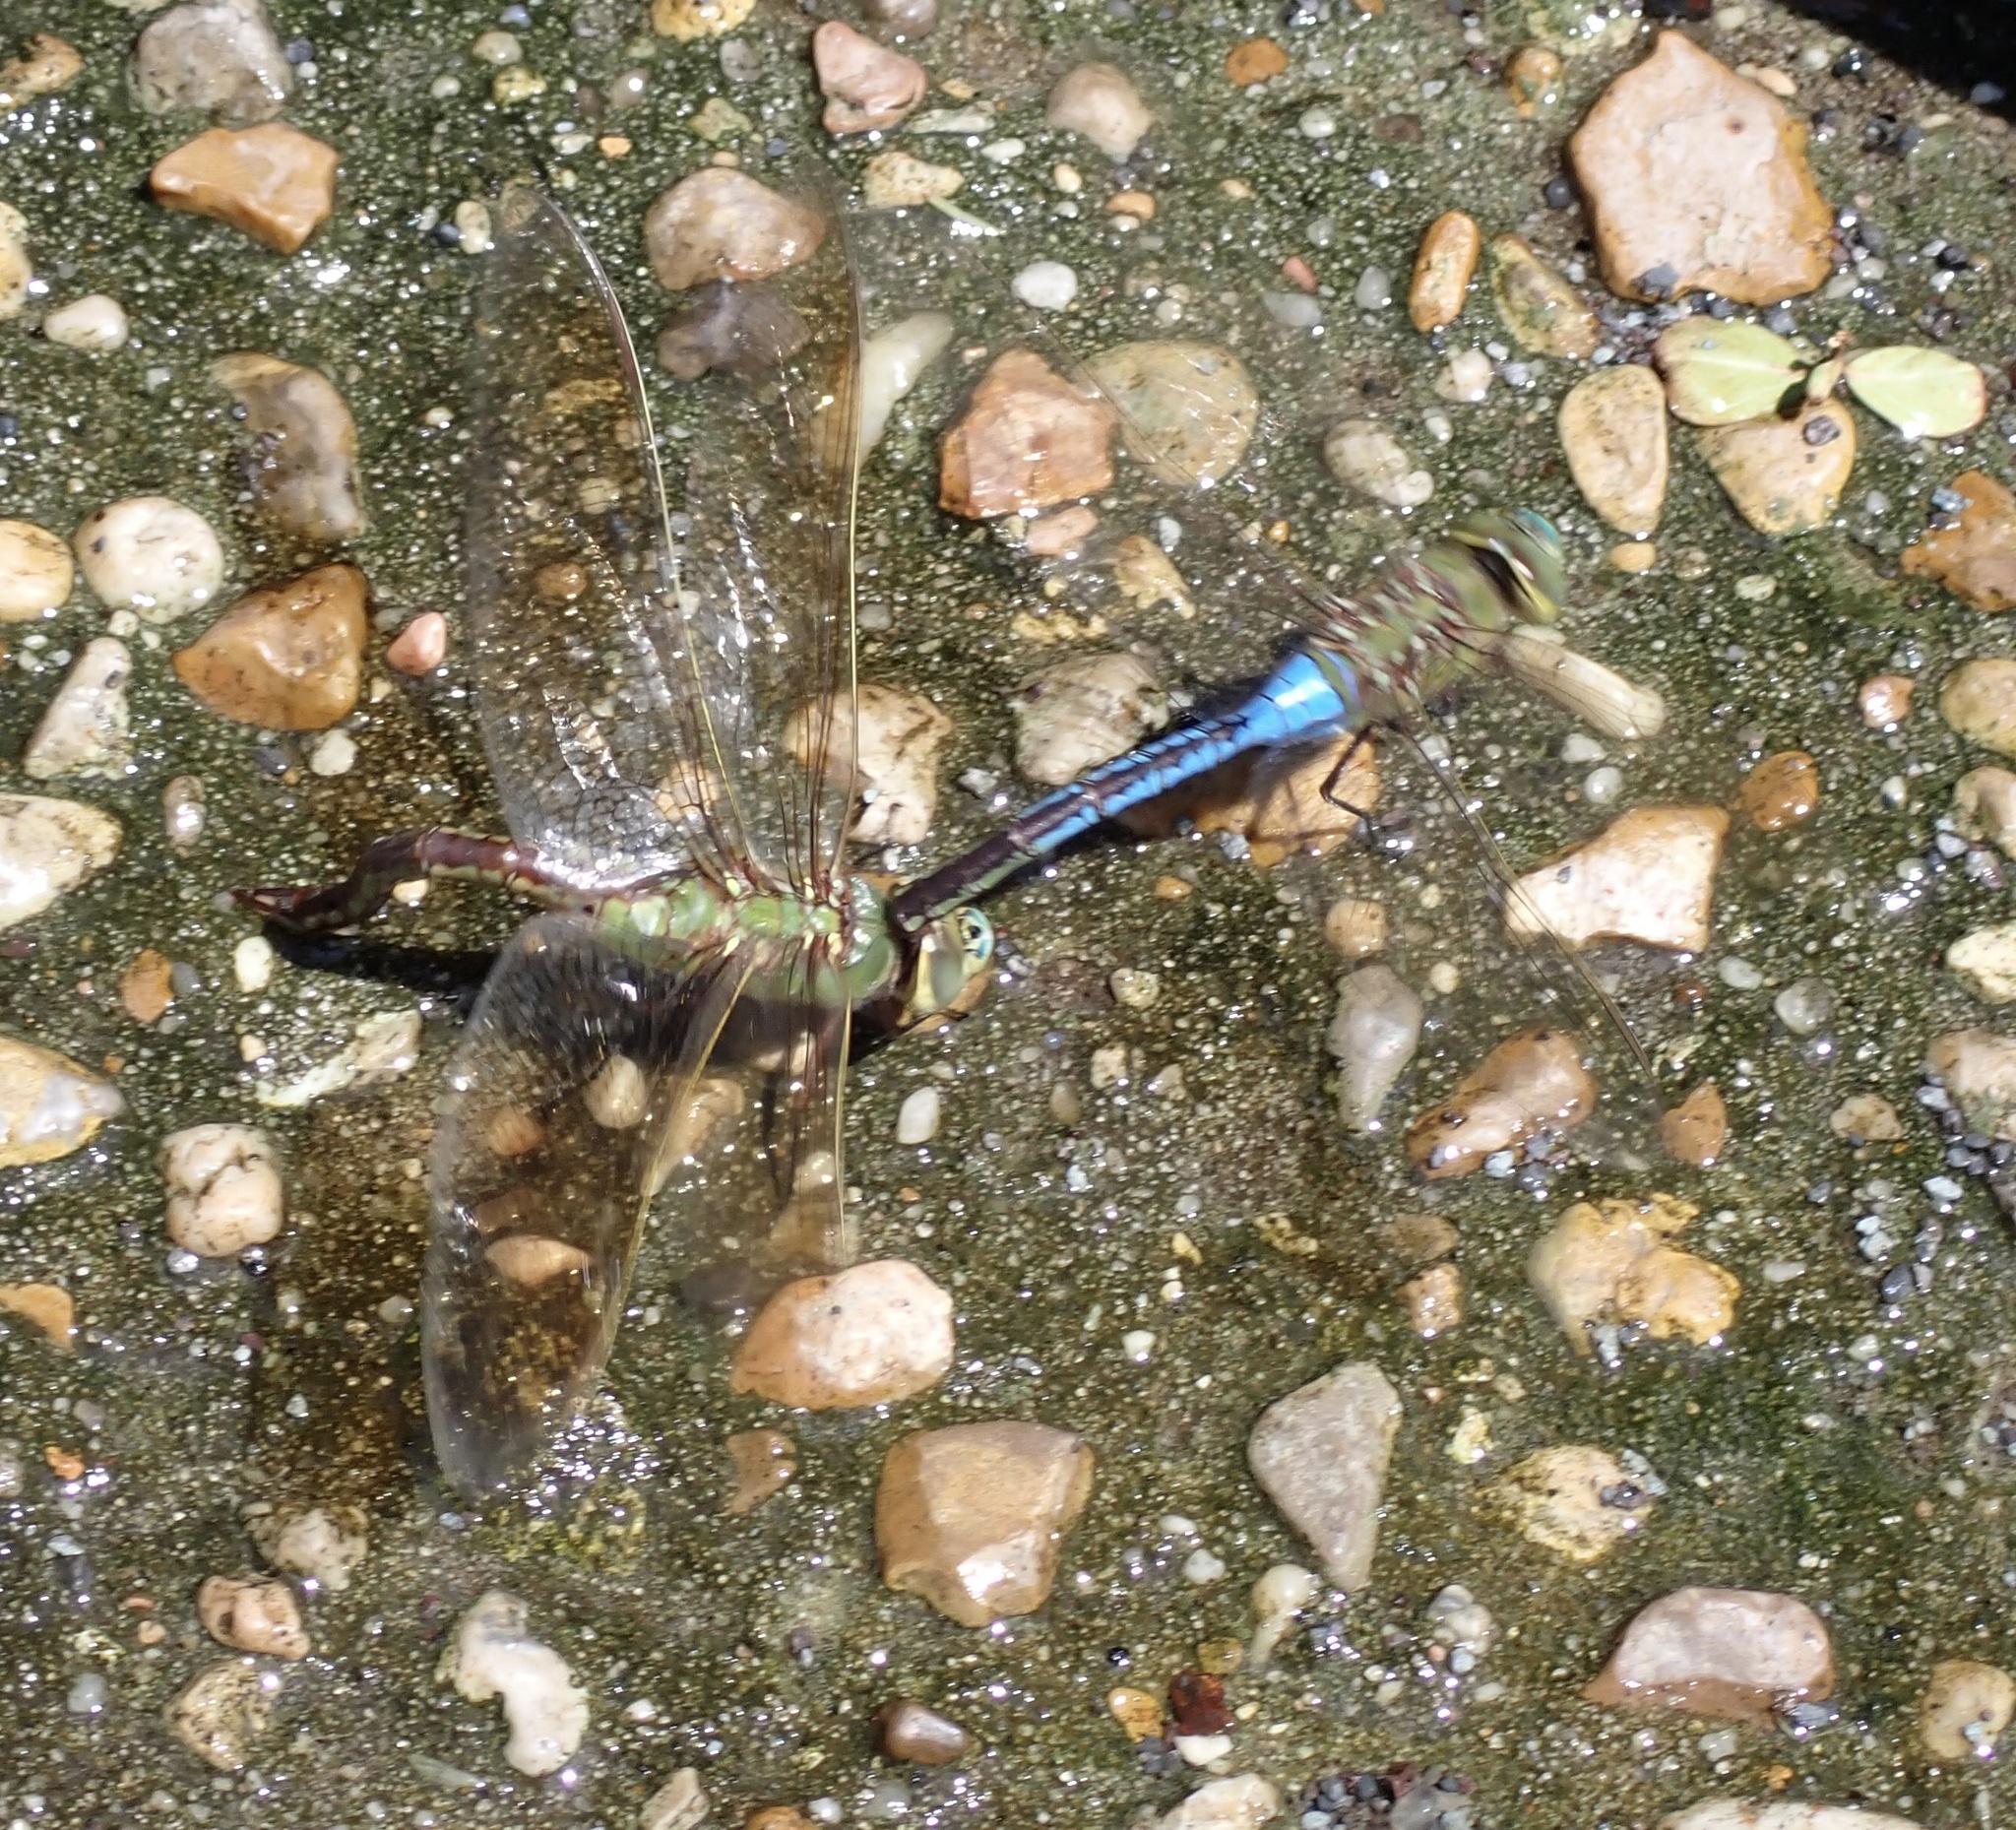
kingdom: Animalia
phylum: Arthropoda
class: Insecta
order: Odonata
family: Aeshnidae
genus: Anax
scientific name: Anax junius
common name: Common green darner
